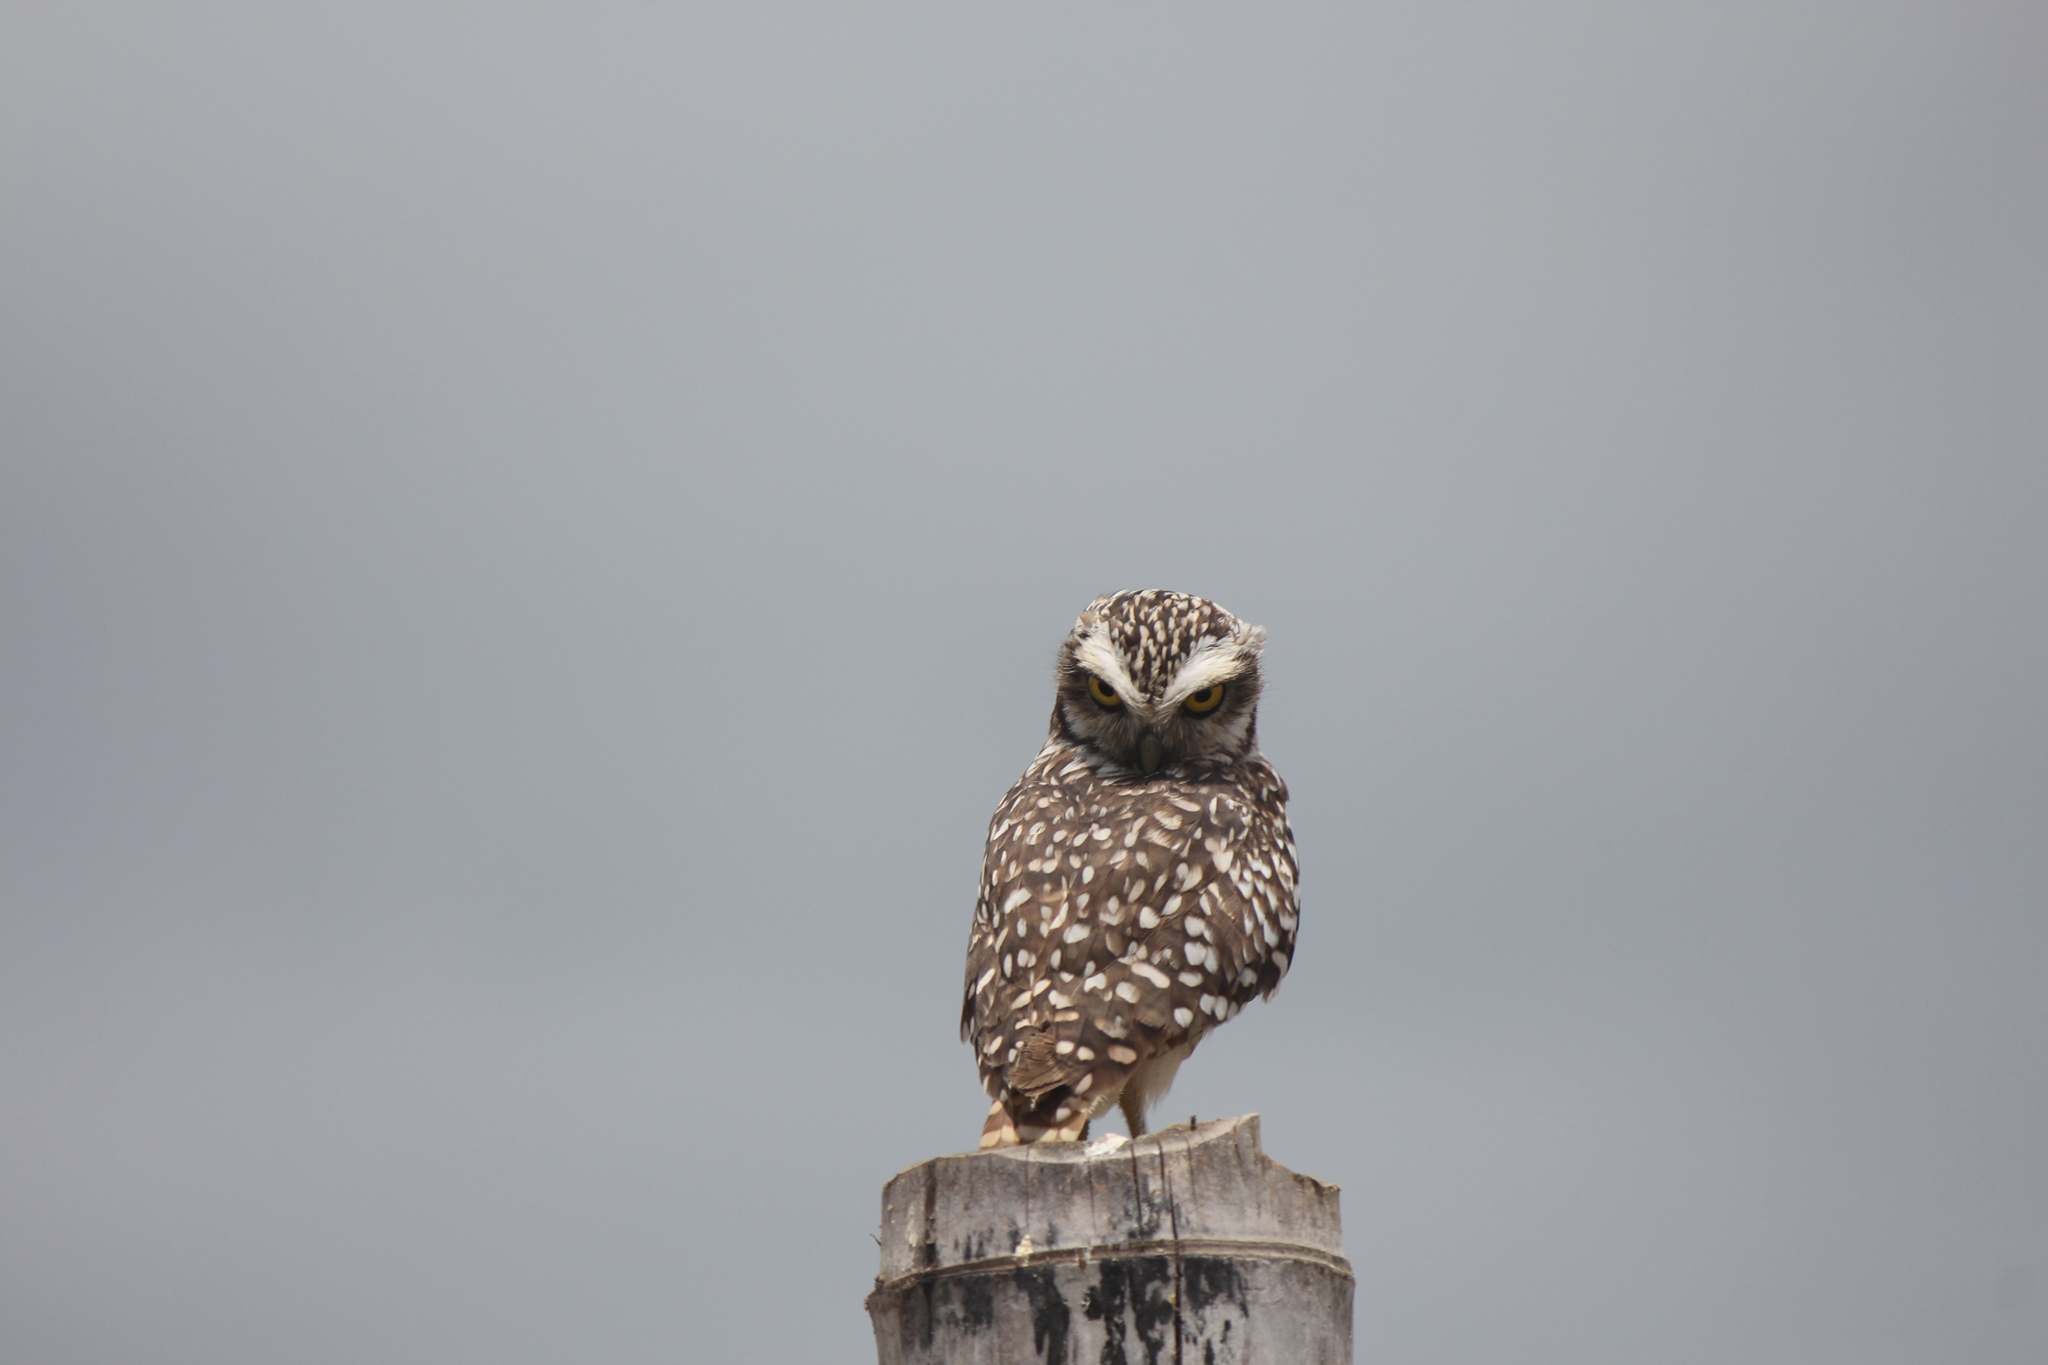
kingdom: Animalia
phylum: Chordata
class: Aves
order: Strigiformes
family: Strigidae
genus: Athene
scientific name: Athene cunicularia
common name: Burrowing owl
